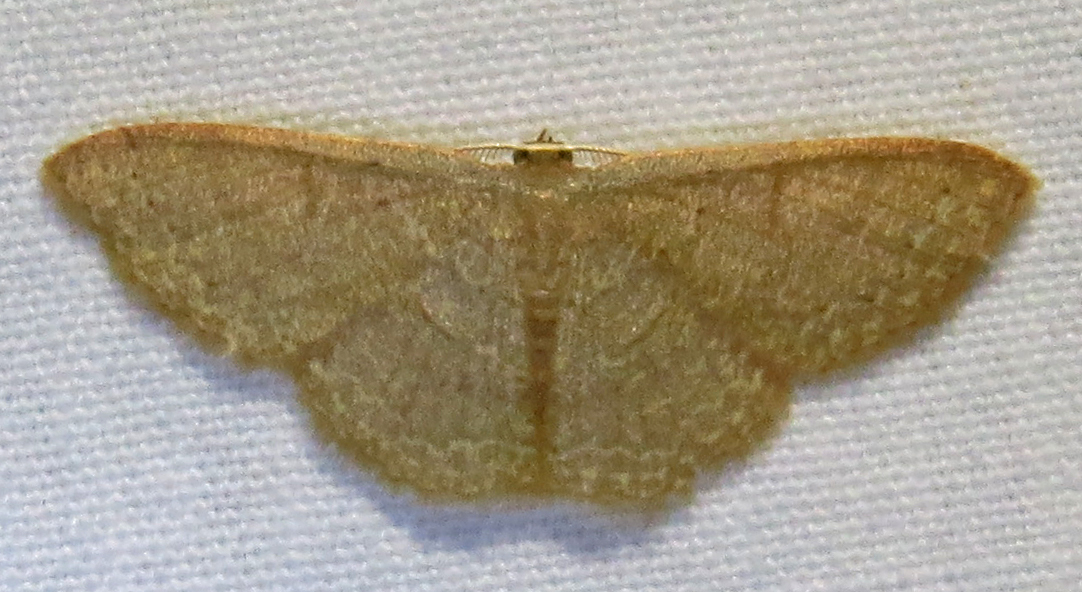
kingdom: Animalia
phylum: Arthropoda
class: Insecta
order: Lepidoptera
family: Geometridae
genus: Pleuroprucha
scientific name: Pleuroprucha insulsaria
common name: Common tan wave
